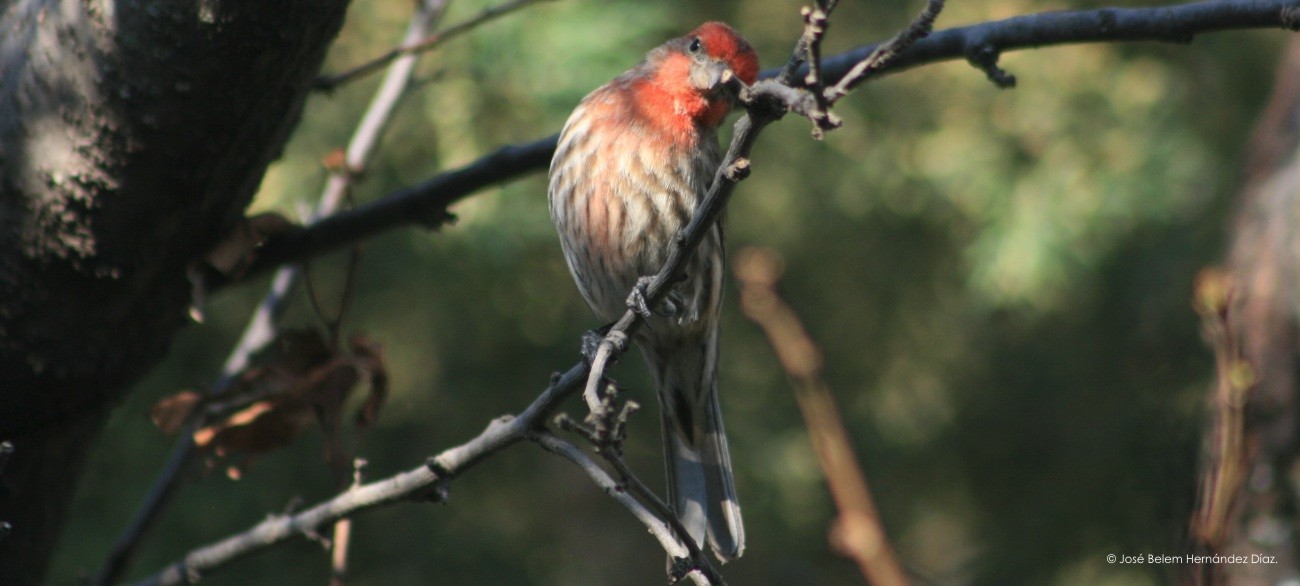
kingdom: Animalia
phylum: Chordata
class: Aves
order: Passeriformes
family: Fringillidae
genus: Haemorhous
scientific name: Haemorhous mexicanus
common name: House finch
